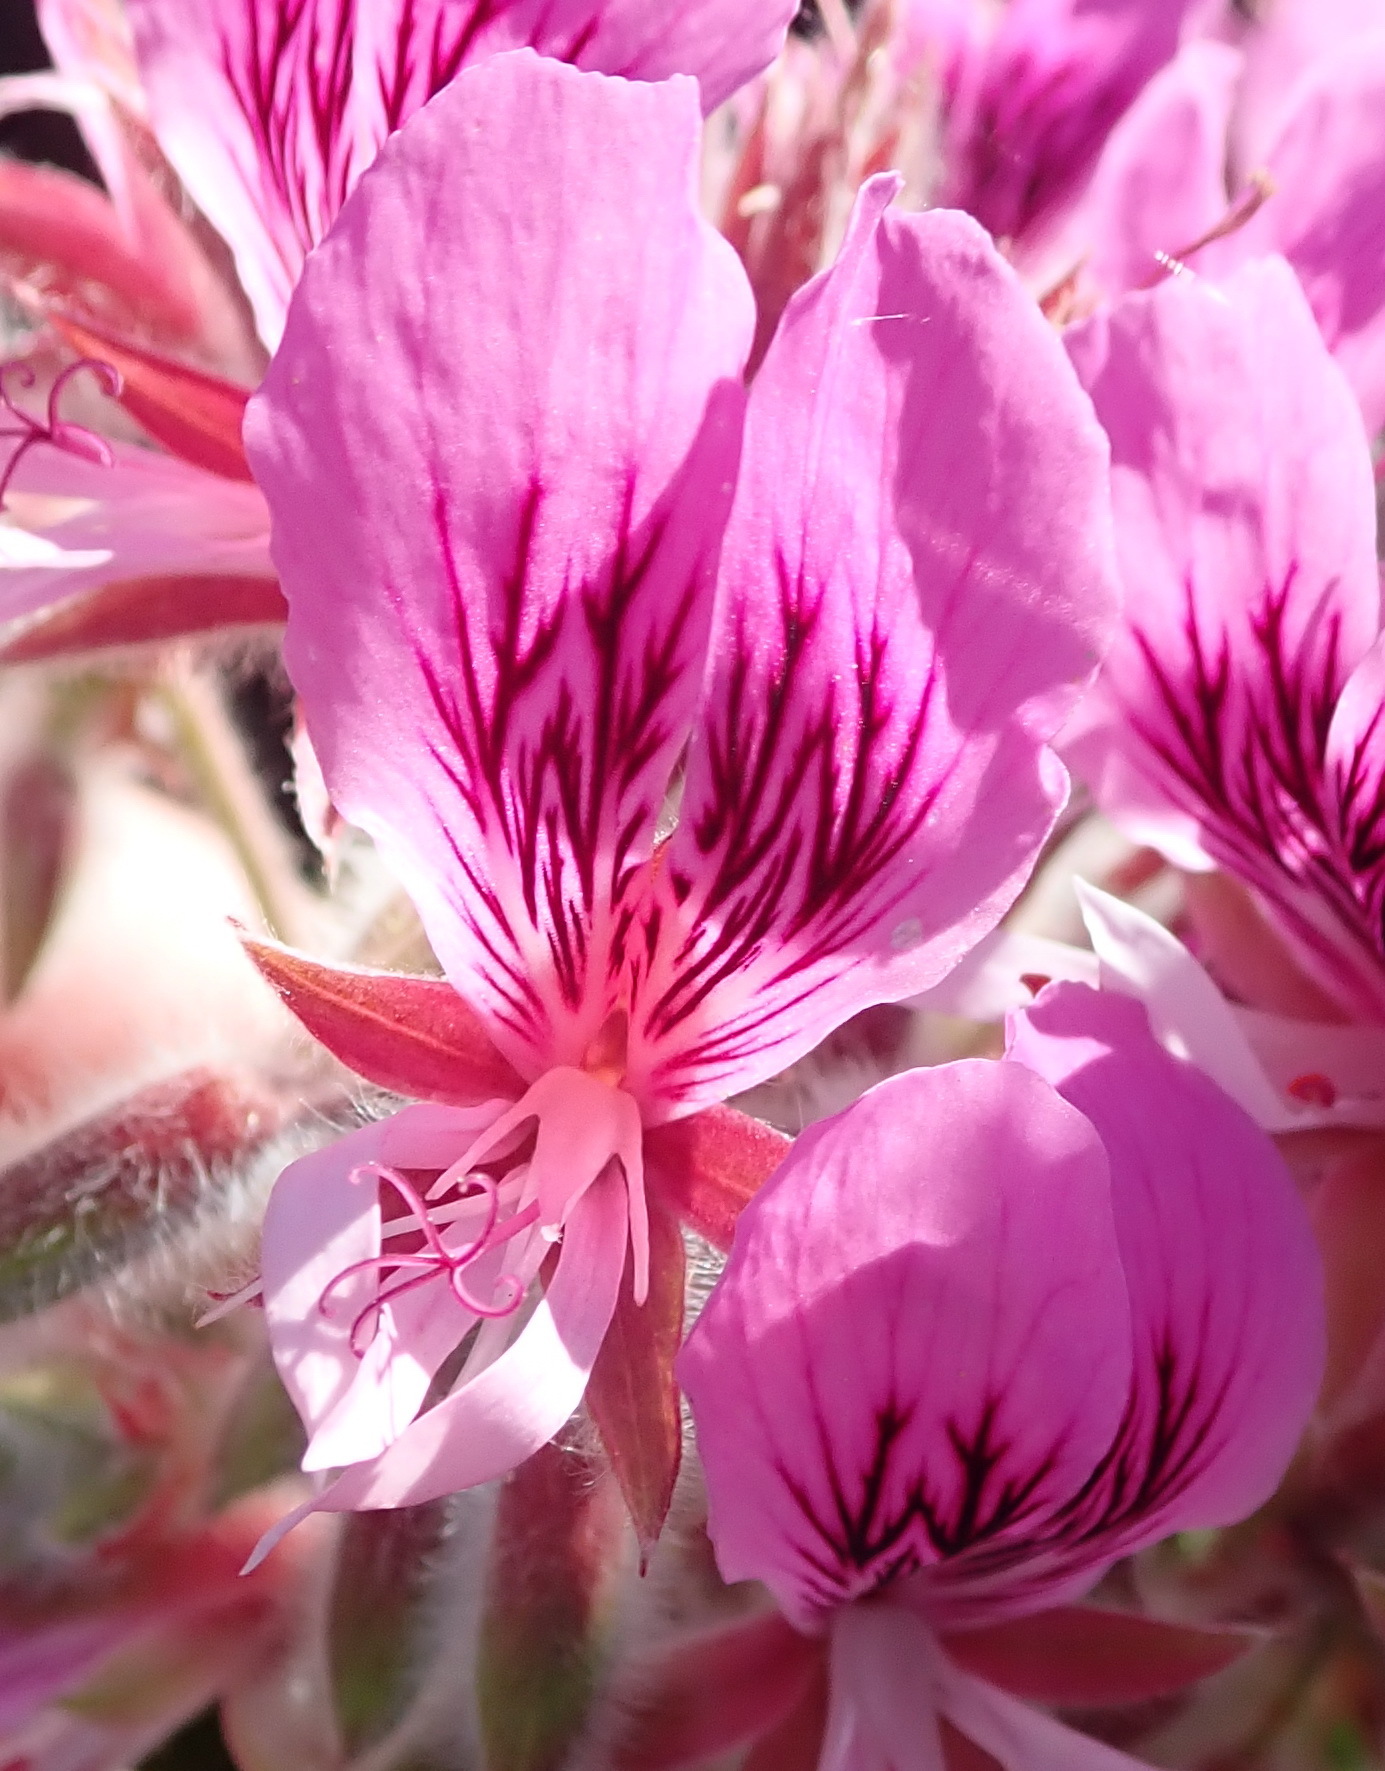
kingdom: Plantae
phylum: Tracheophyta
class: Magnoliopsida
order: Geraniales
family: Geraniaceae
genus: Pelargonium
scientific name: Pelargonium cordifolium
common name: Heart-leaf pelargonium
